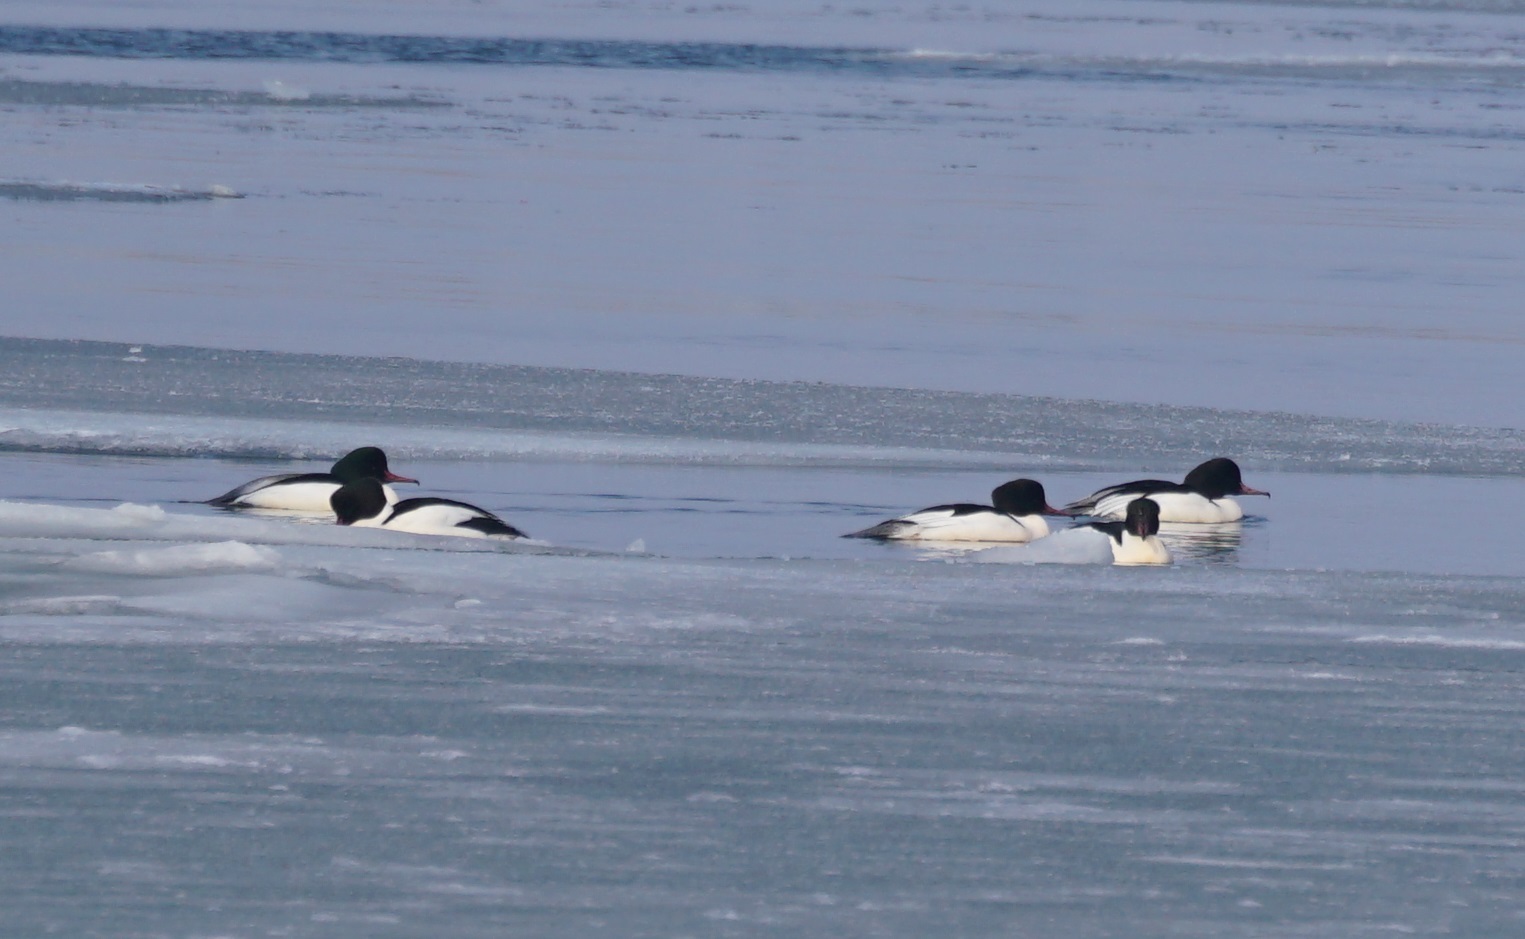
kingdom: Animalia
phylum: Chordata
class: Aves
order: Anseriformes
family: Anatidae
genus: Mergus
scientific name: Mergus merganser
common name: Common merganser
